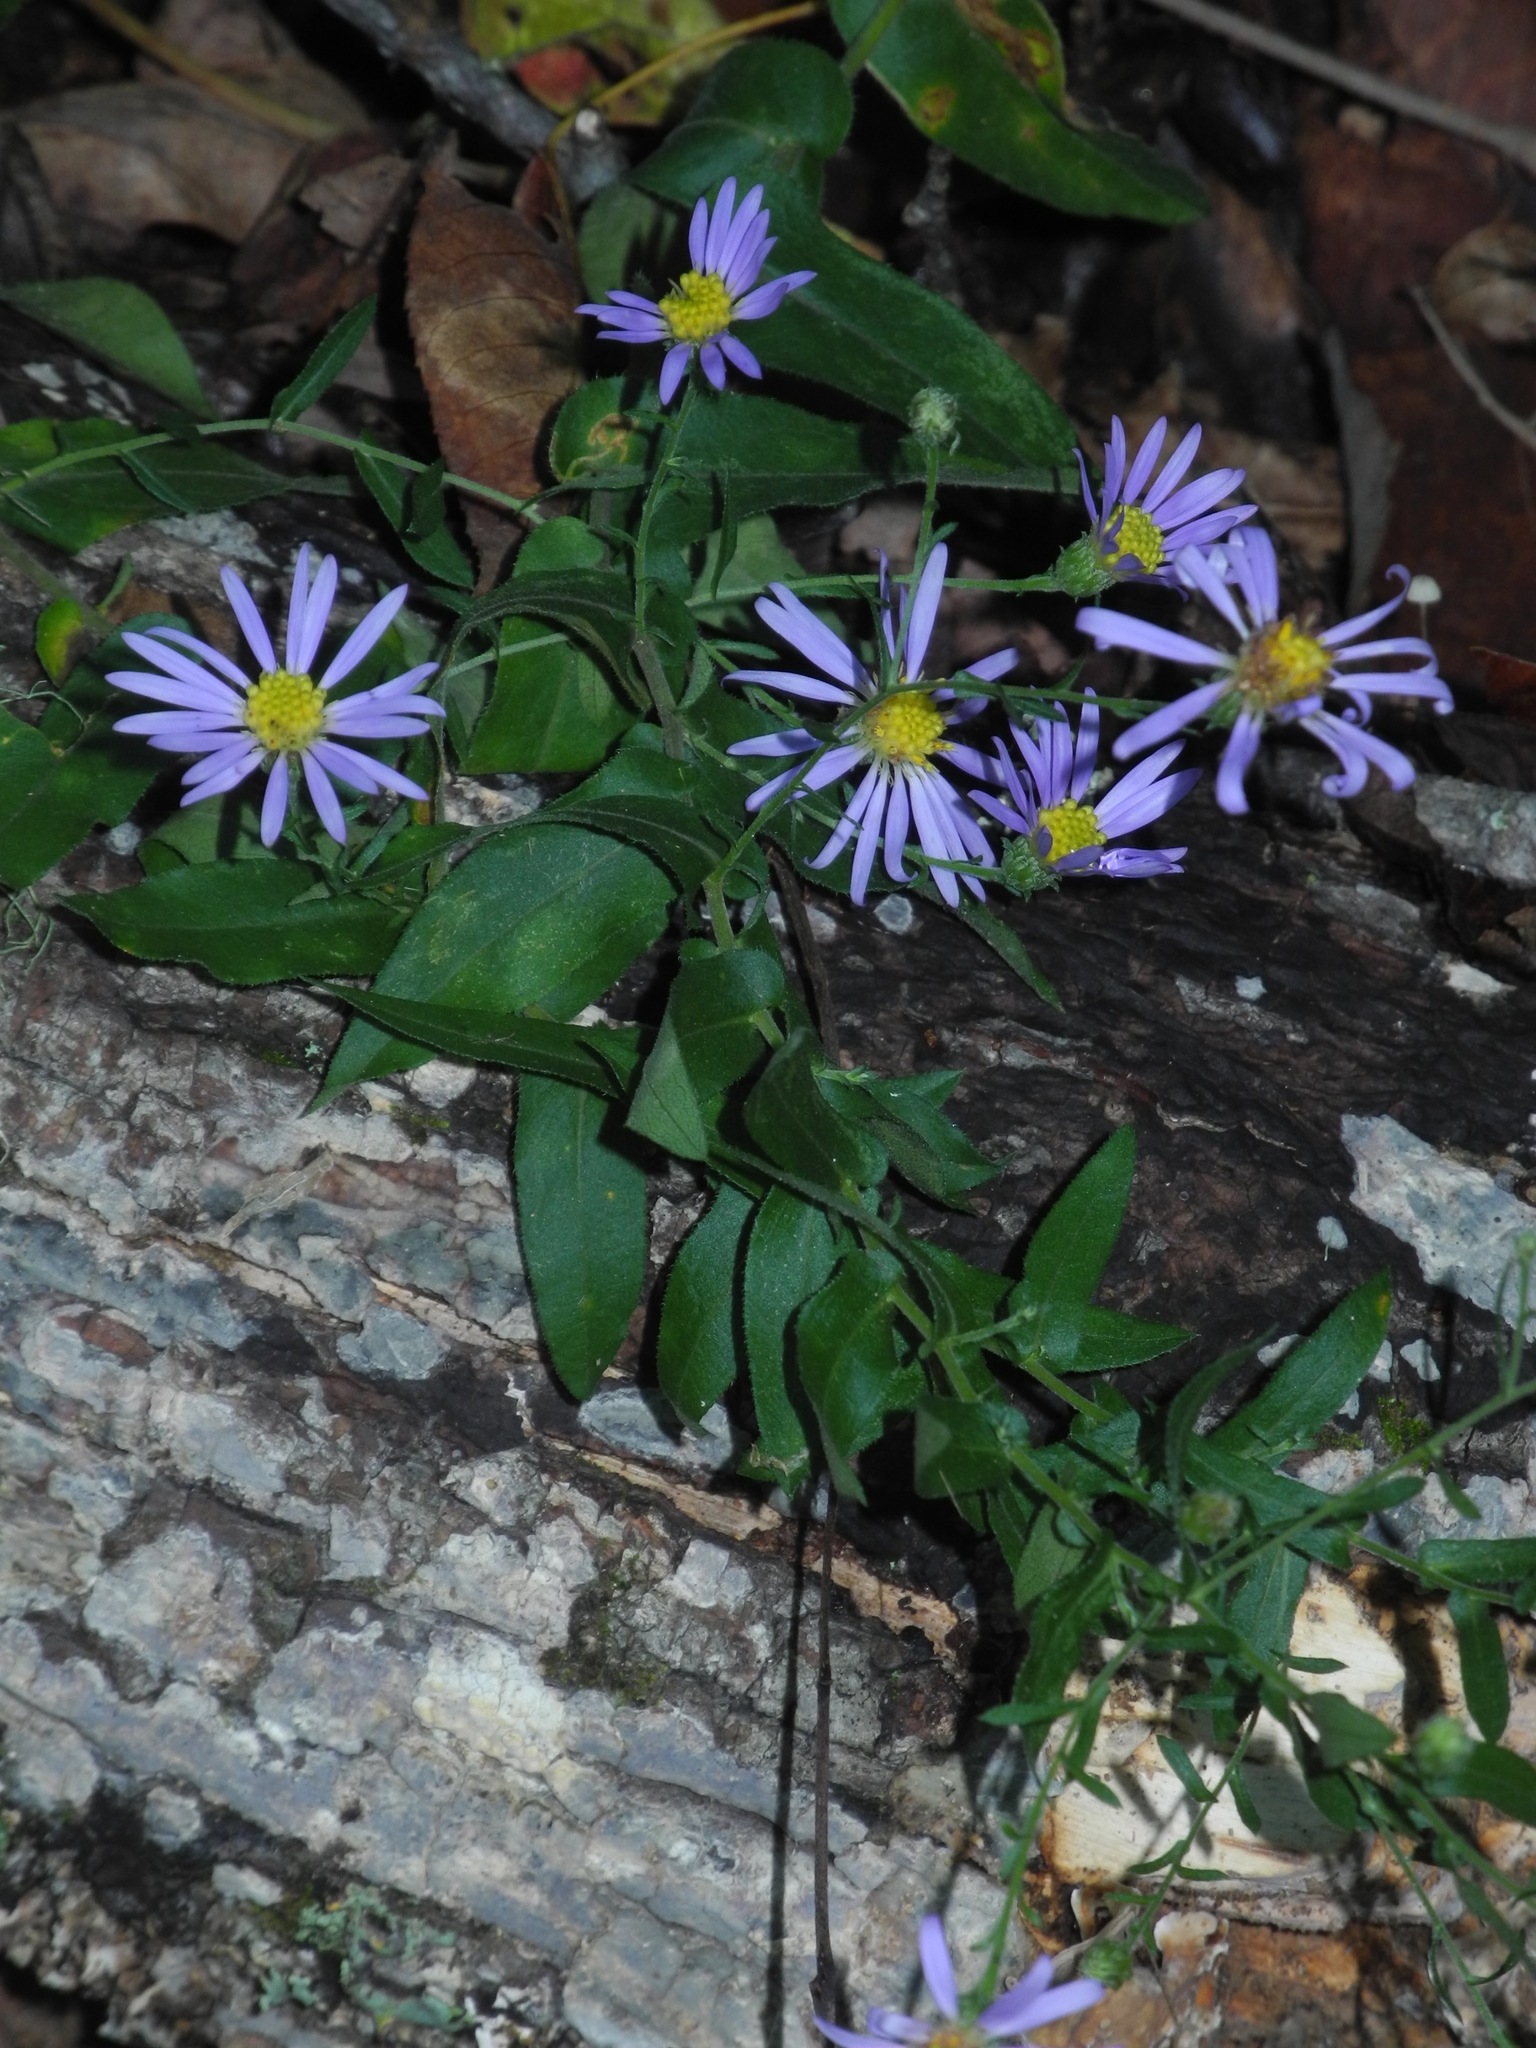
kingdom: Plantae
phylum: Tracheophyta
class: Magnoliopsida
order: Asterales
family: Asteraceae
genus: Symphyotrichum
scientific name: Symphyotrichum patens
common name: Late purple aster
